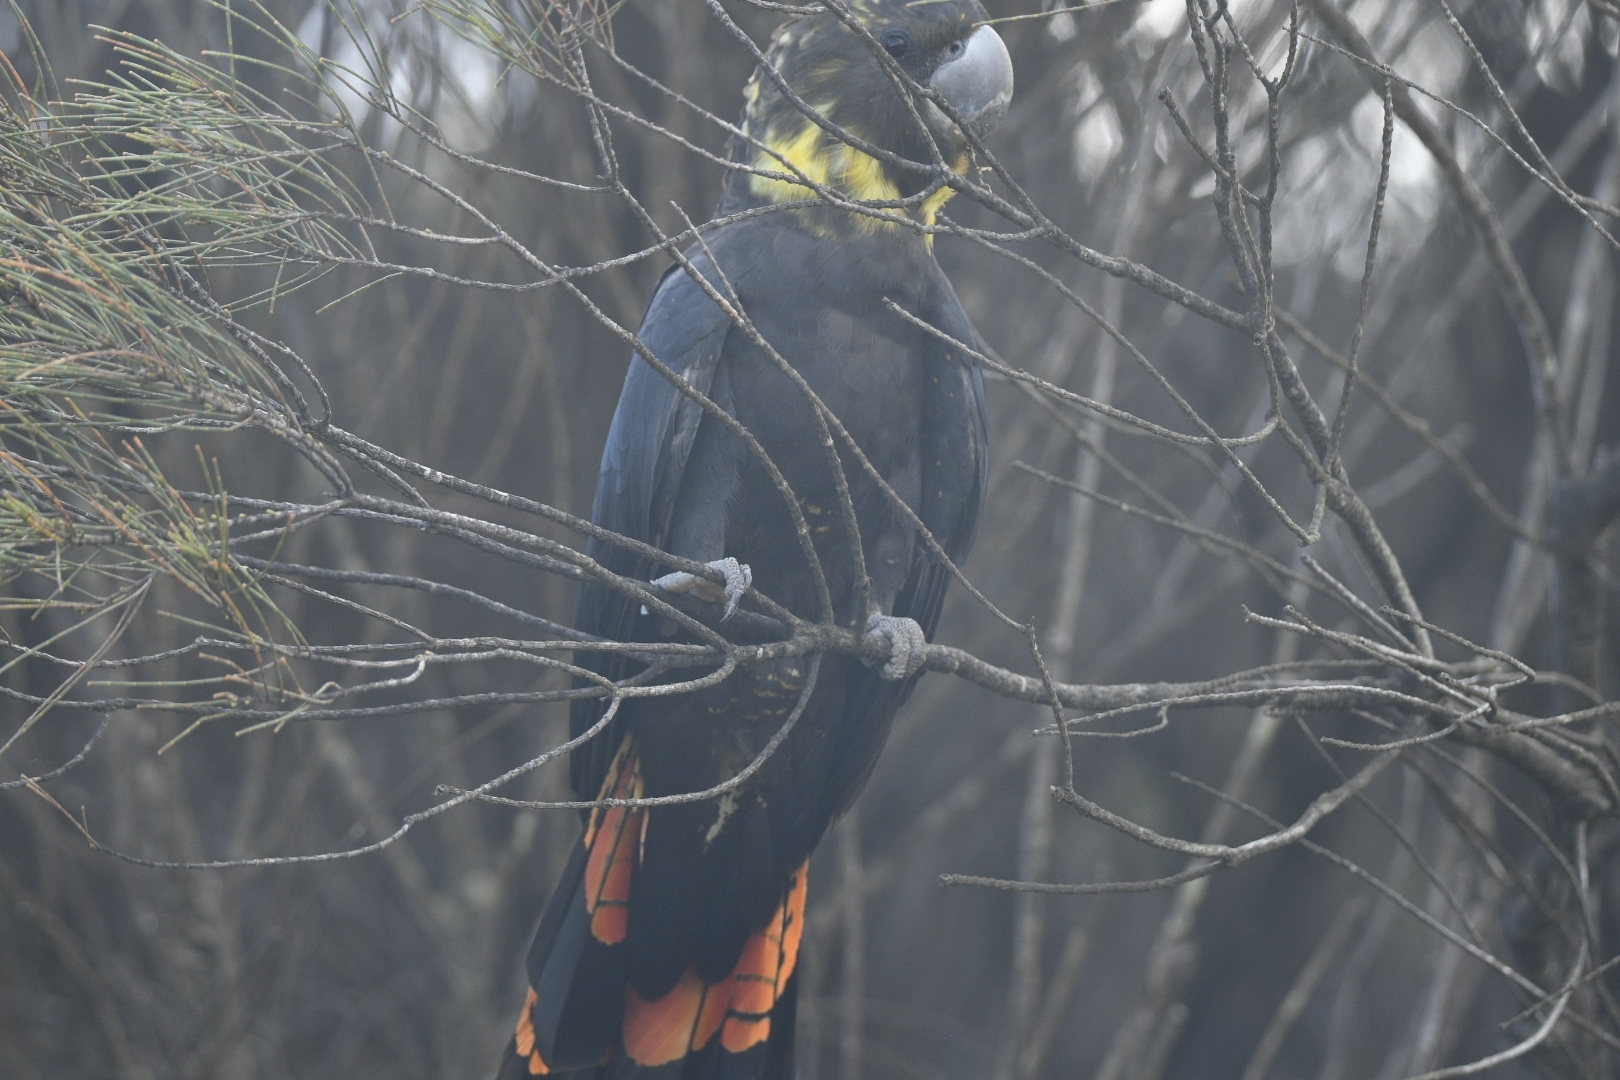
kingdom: Animalia
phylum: Chordata
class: Aves
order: Psittaciformes
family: Psittacidae
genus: Calyptorhynchus
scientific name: Calyptorhynchus lathami
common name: Glossy black cockatoo
